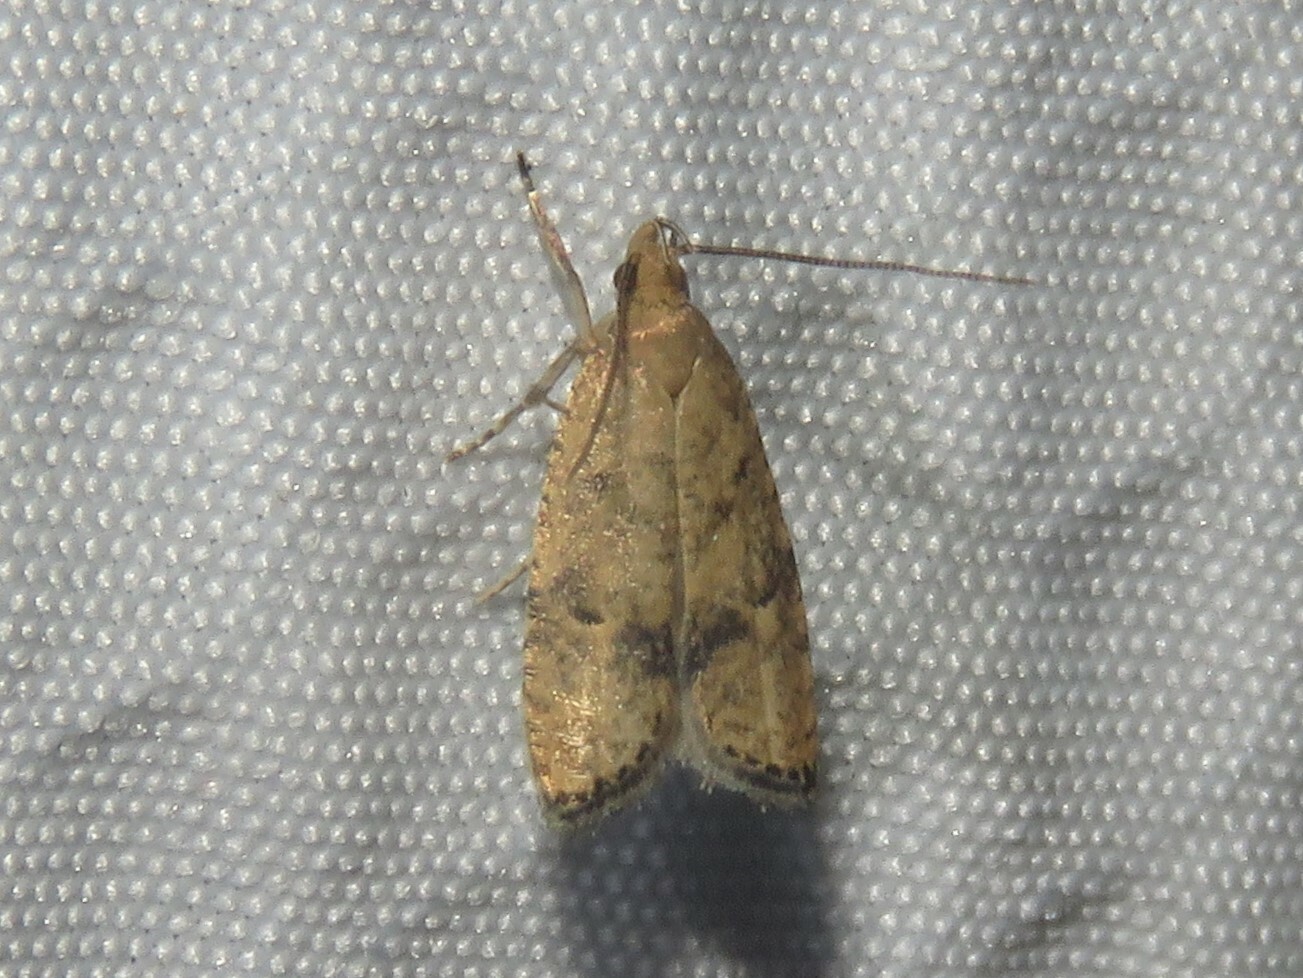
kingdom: Animalia
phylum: Arthropoda
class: Insecta
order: Lepidoptera
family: Depressariidae
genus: Psilocorsis
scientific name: Psilocorsis quercicella
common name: Oak leaftier moth
